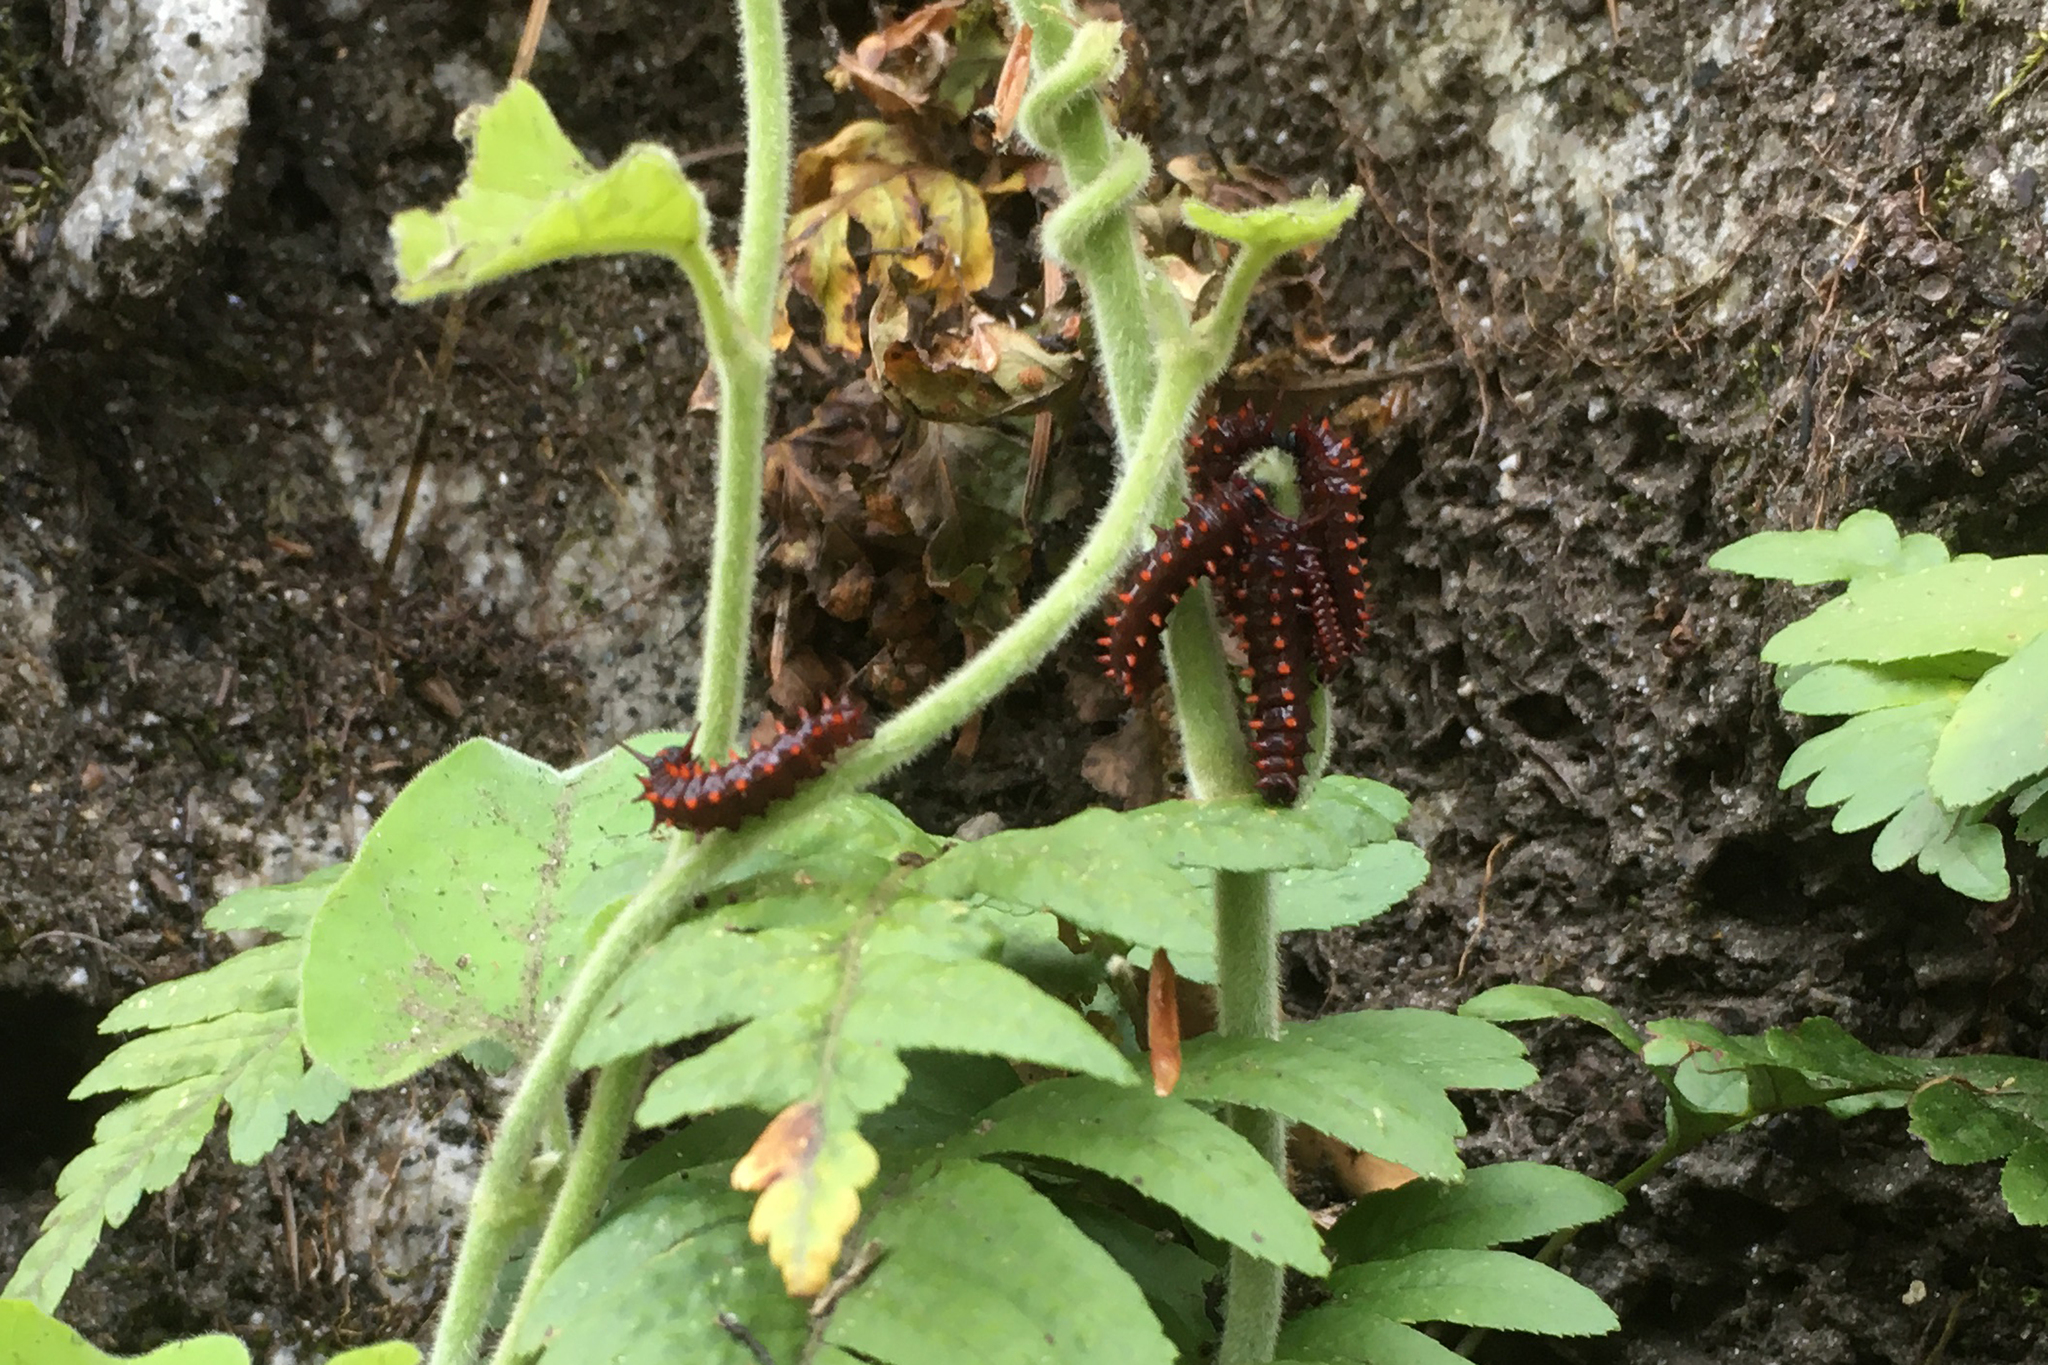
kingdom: Plantae
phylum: Tracheophyta
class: Magnoliopsida
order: Piperales
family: Aristolochiaceae
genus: Isotrema
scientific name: Isotrema californicum
